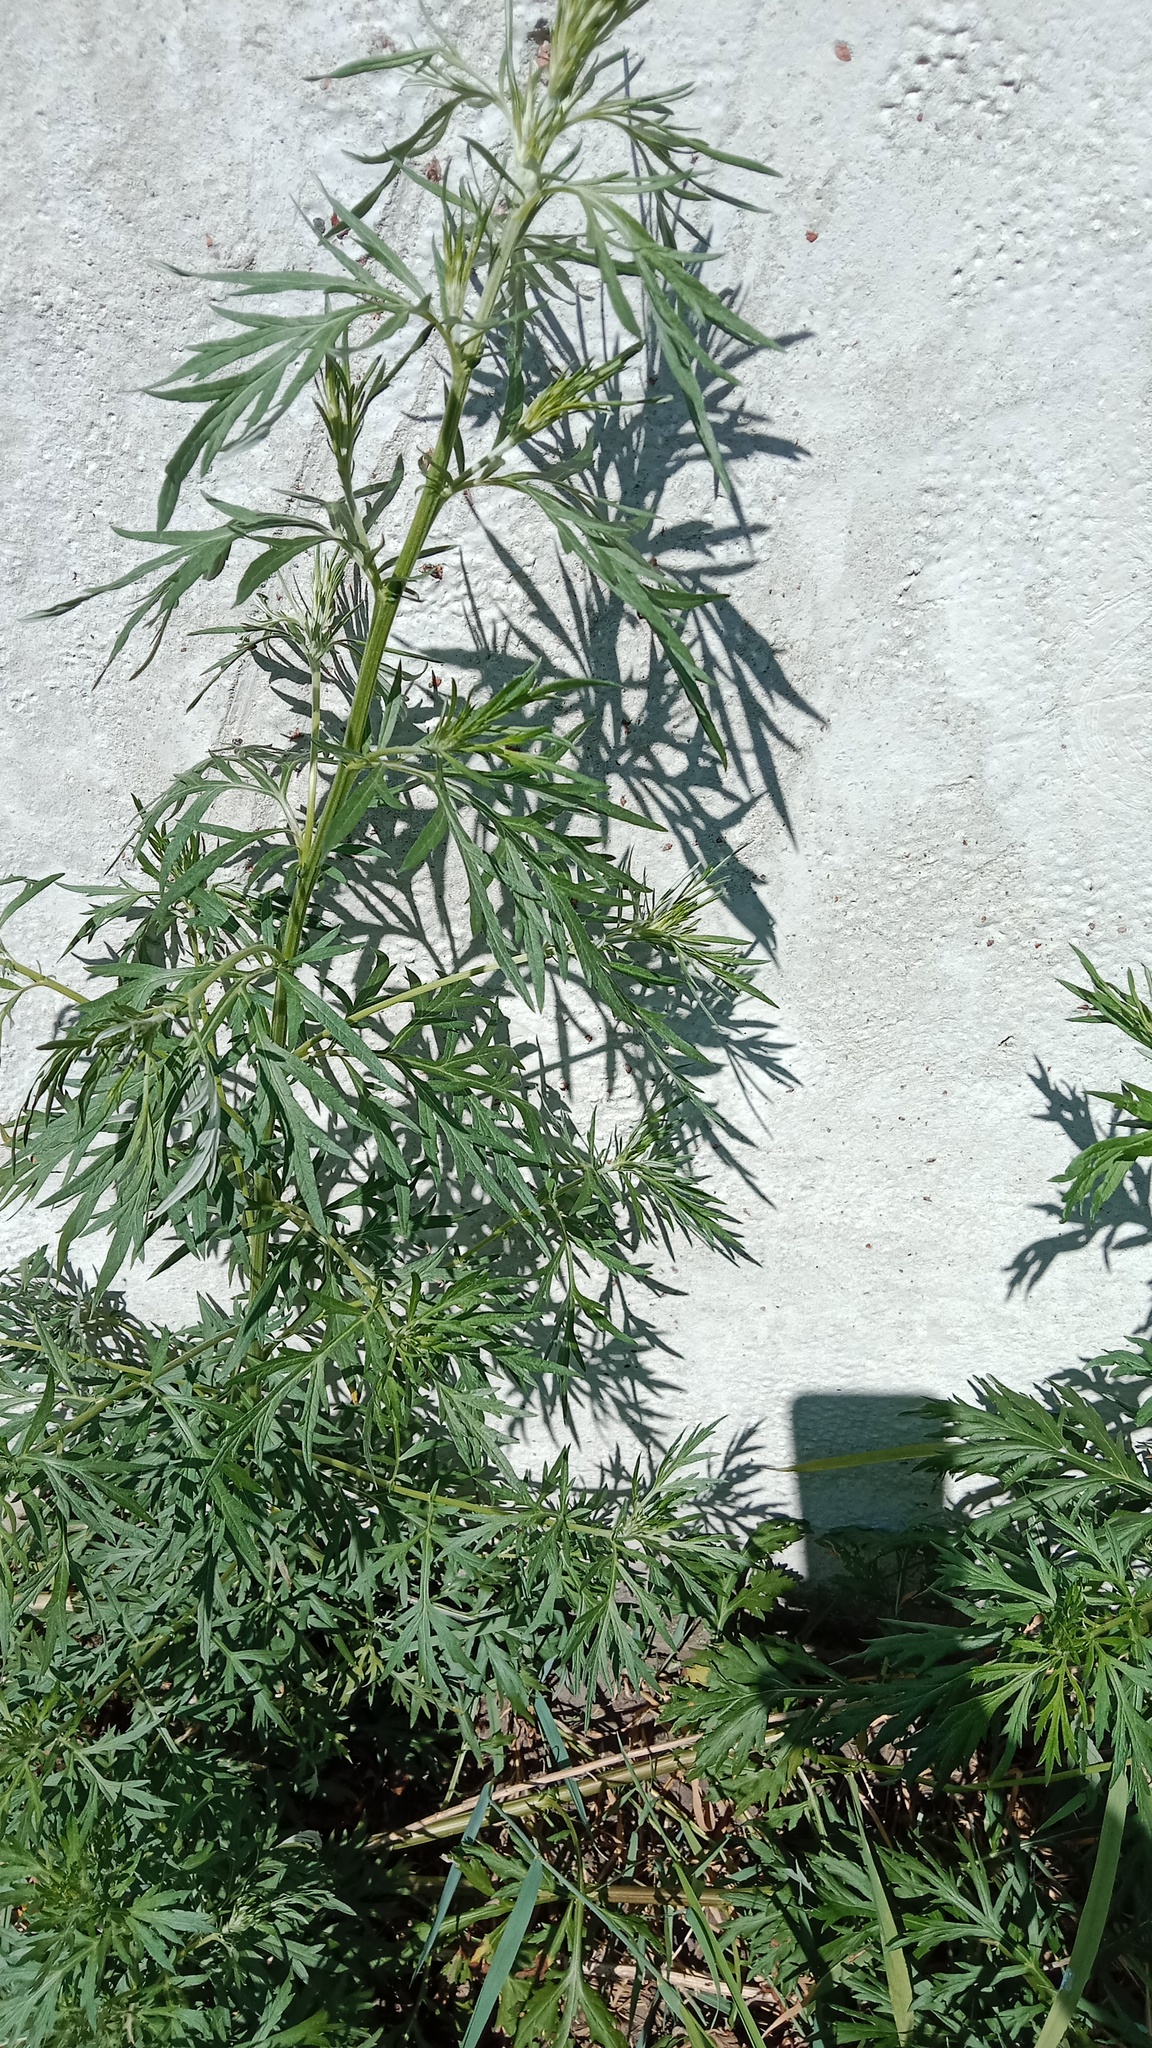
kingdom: Plantae
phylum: Tracheophyta
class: Magnoliopsida
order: Asterales
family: Asteraceae
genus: Artemisia
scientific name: Artemisia vulgaris
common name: Mugwort
